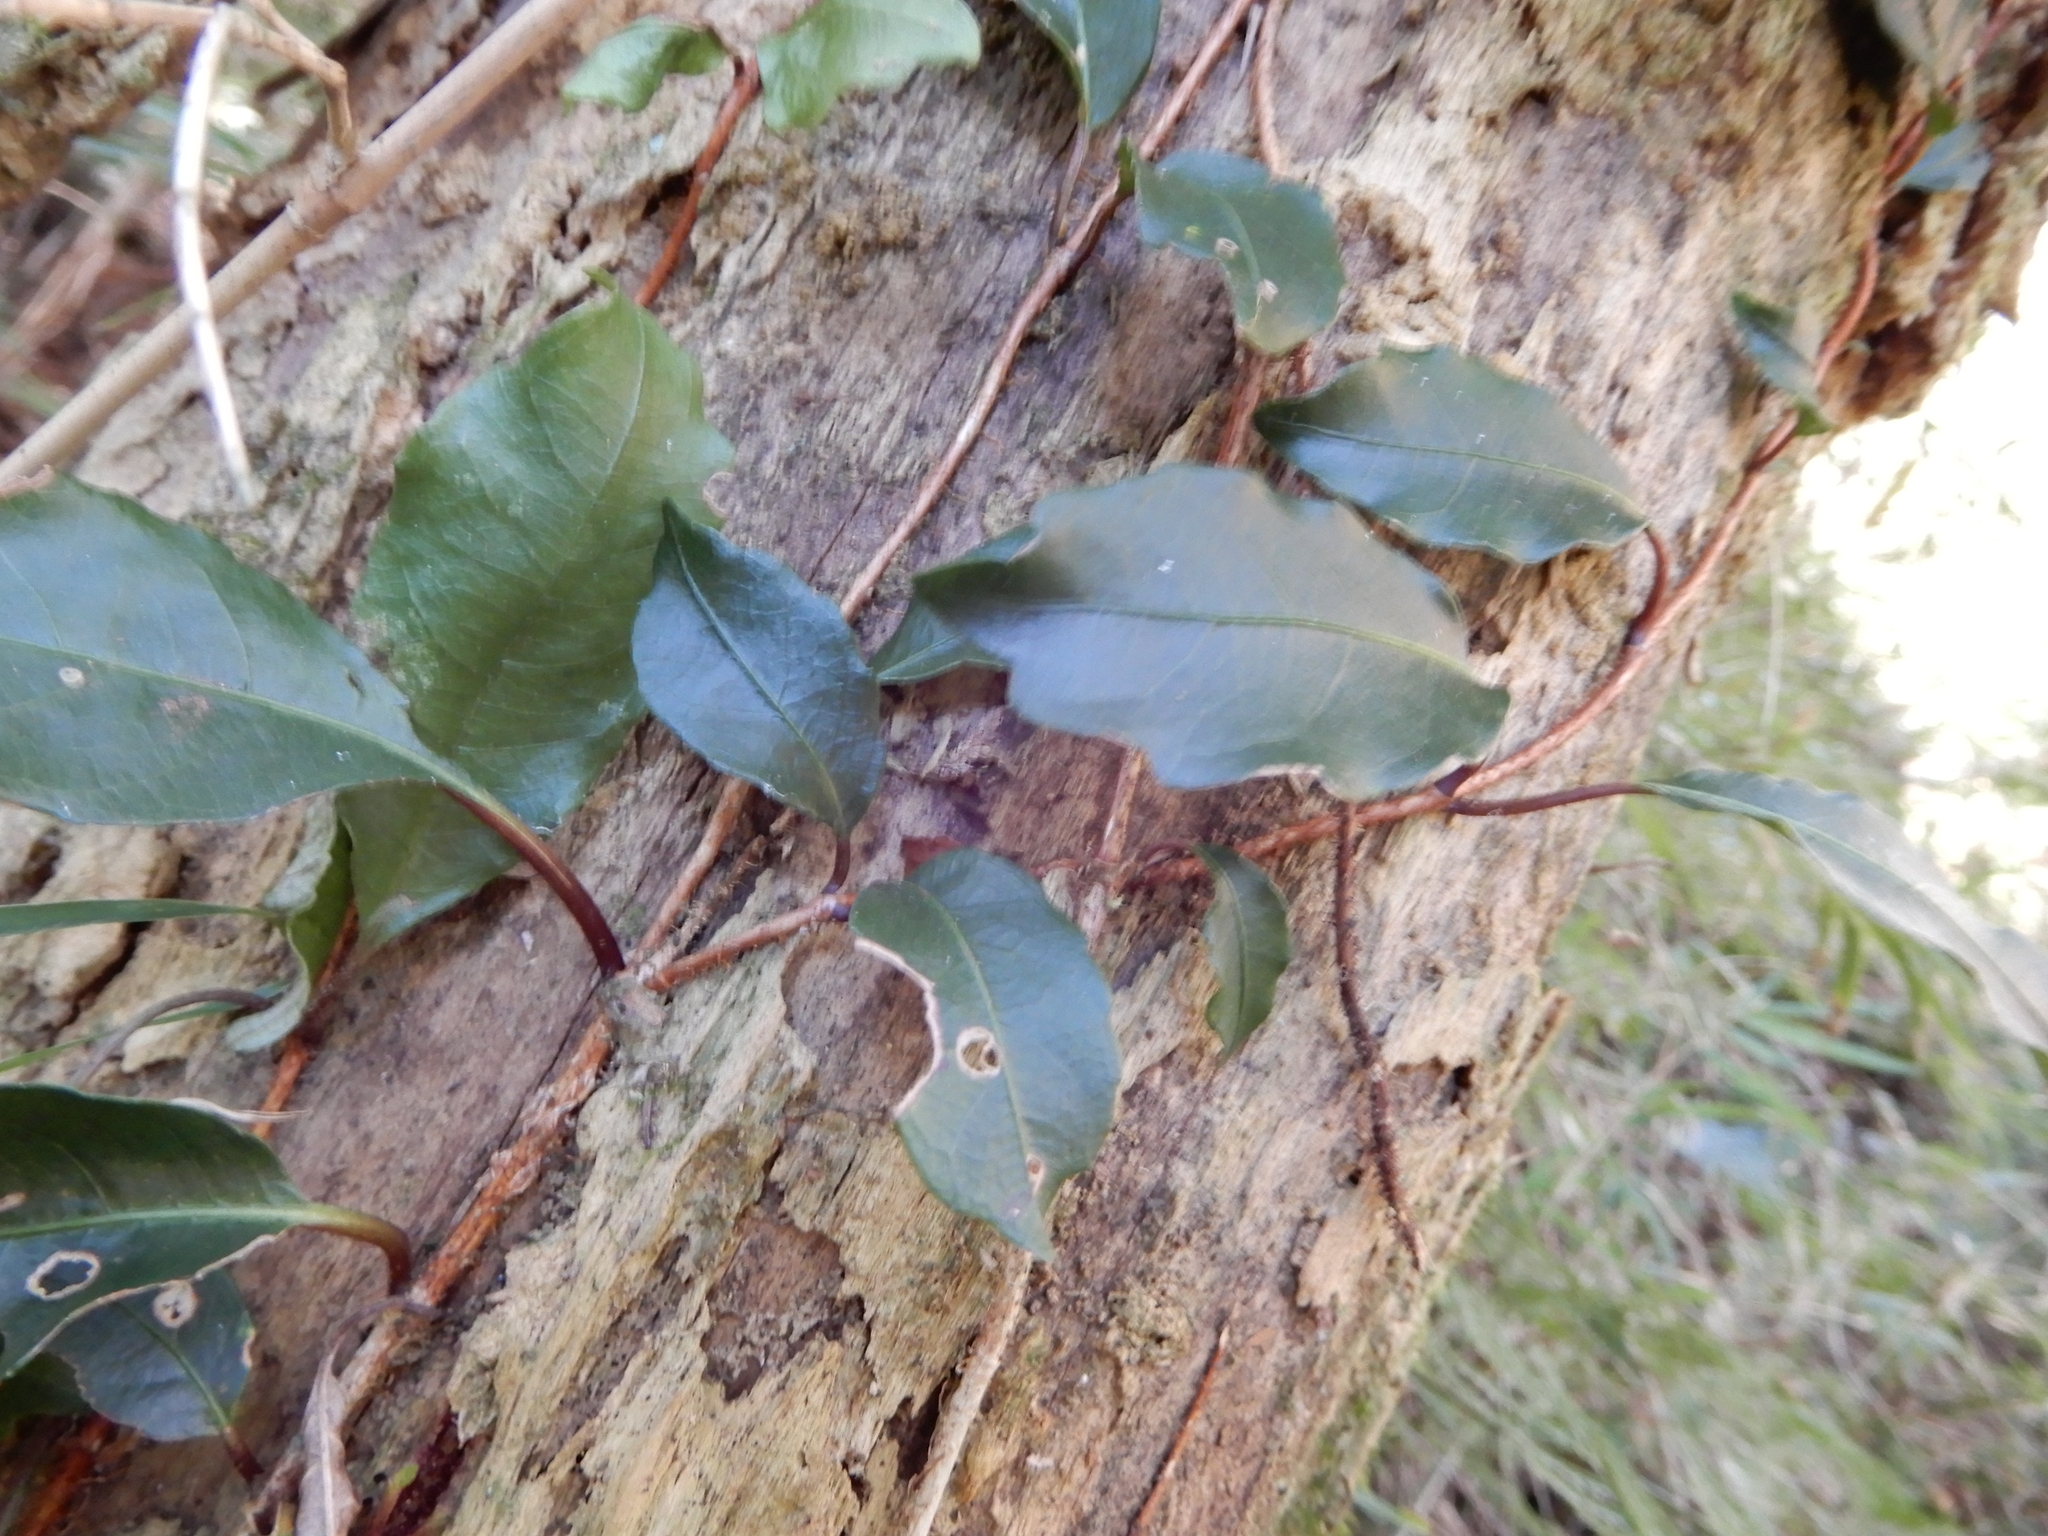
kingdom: Plantae
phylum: Tracheophyta
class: Magnoliopsida
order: Cornales
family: Hydrangeaceae
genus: Hydrangea
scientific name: Hydrangea integrifolia
